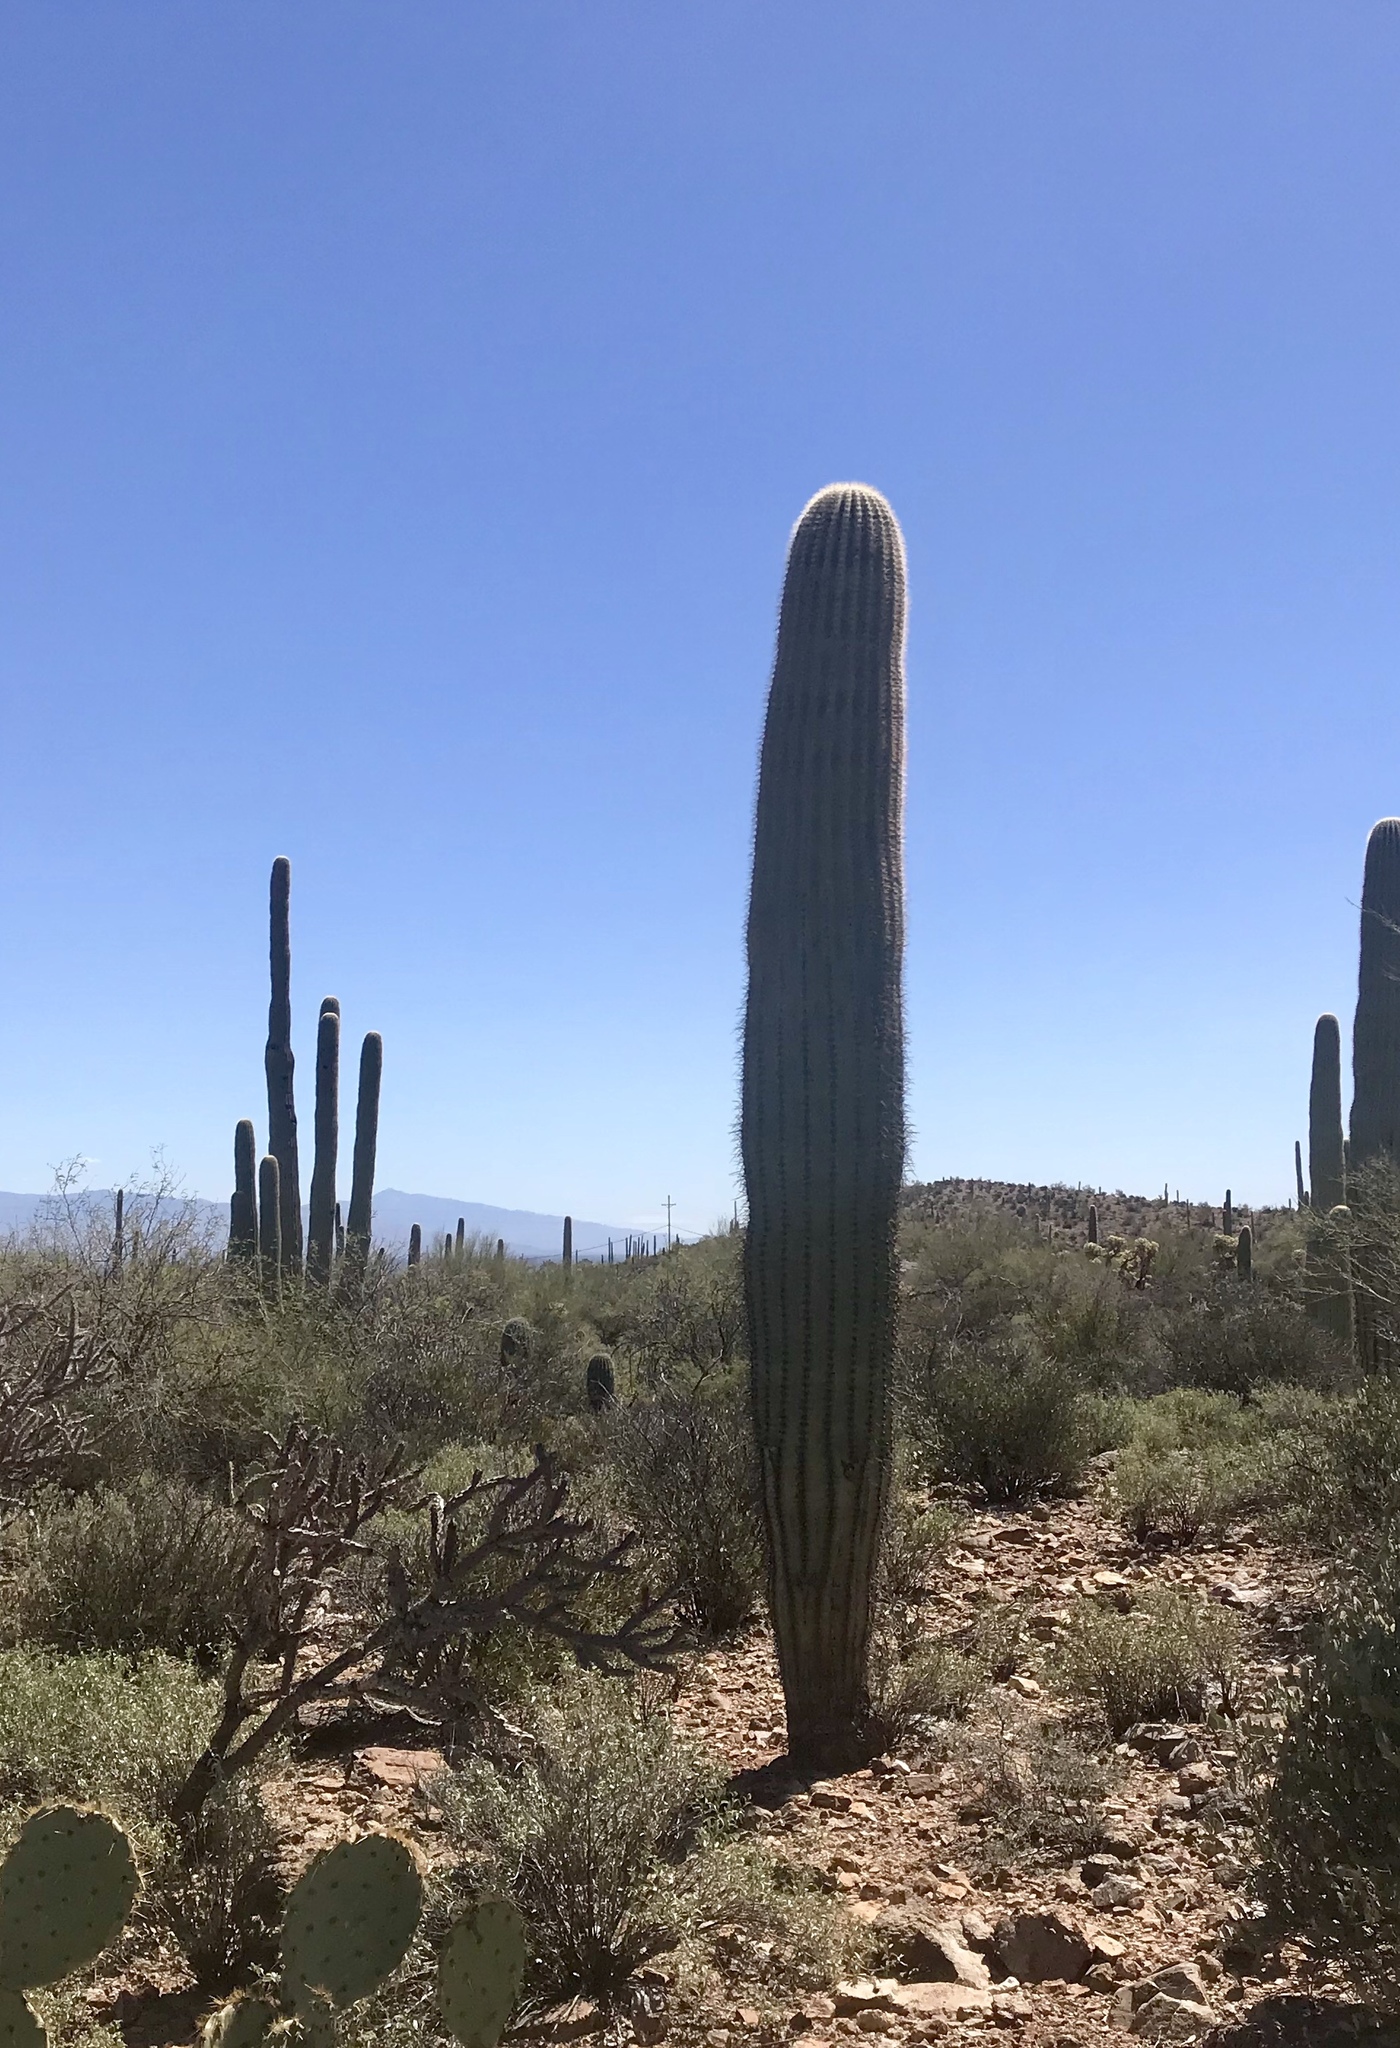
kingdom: Plantae
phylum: Tracheophyta
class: Magnoliopsida
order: Caryophyllales
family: Cactaceae
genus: Carnegiea
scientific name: Carnegiea gigantea
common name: Saguaro
